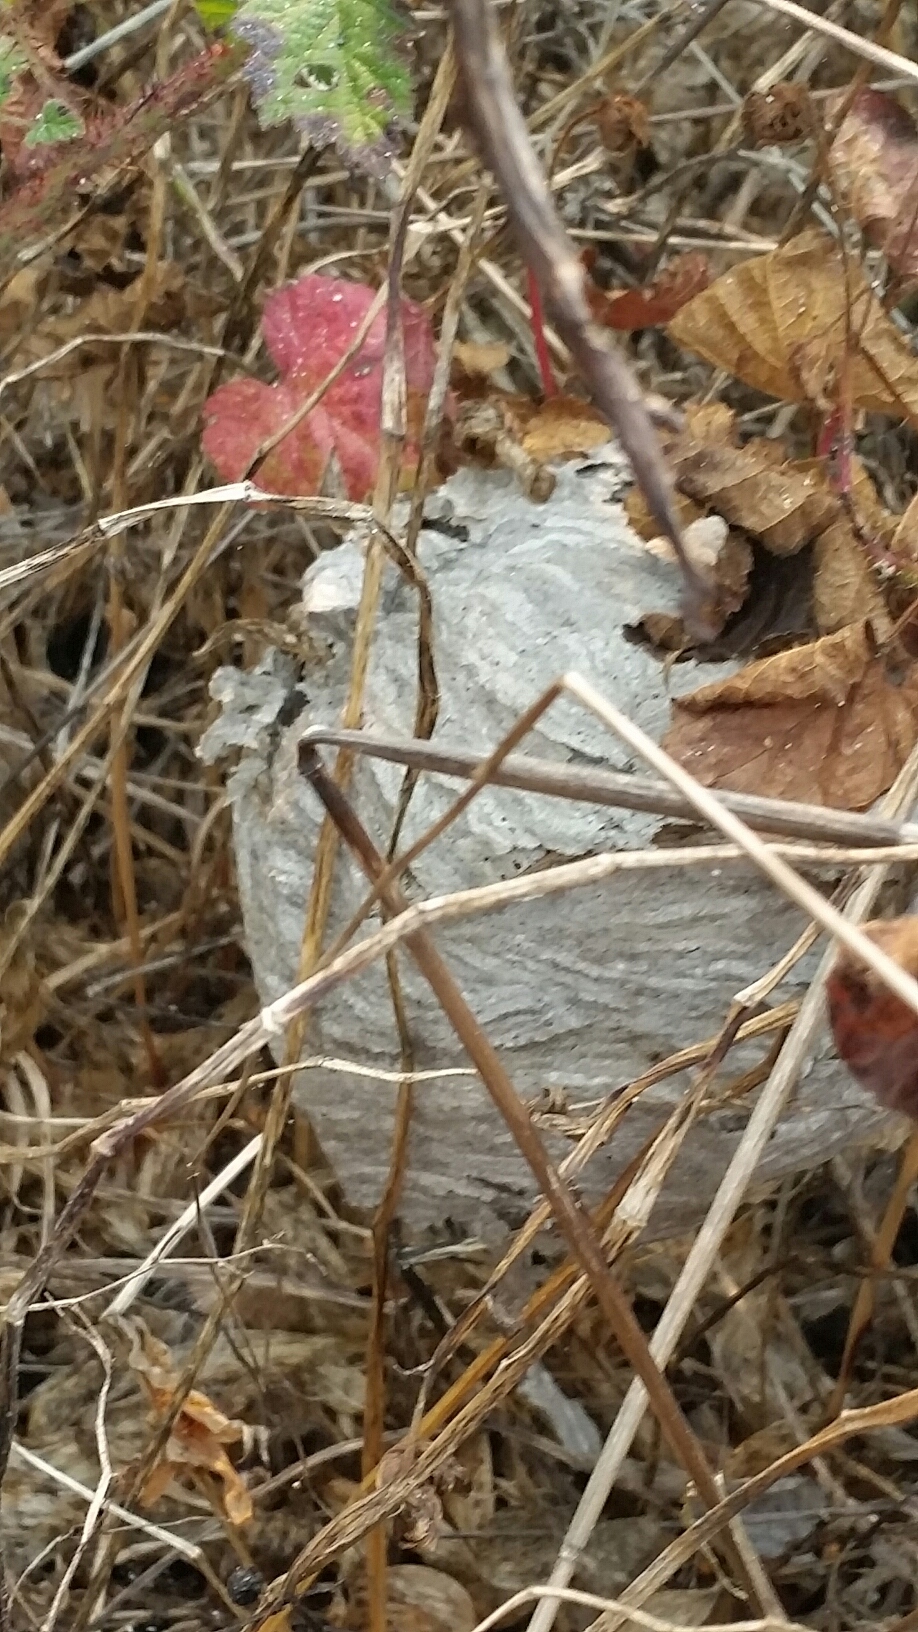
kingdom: Animalia
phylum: Arthropoda
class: Insecta
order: Hymenoptera
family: Vespidae
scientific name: Vespidae
